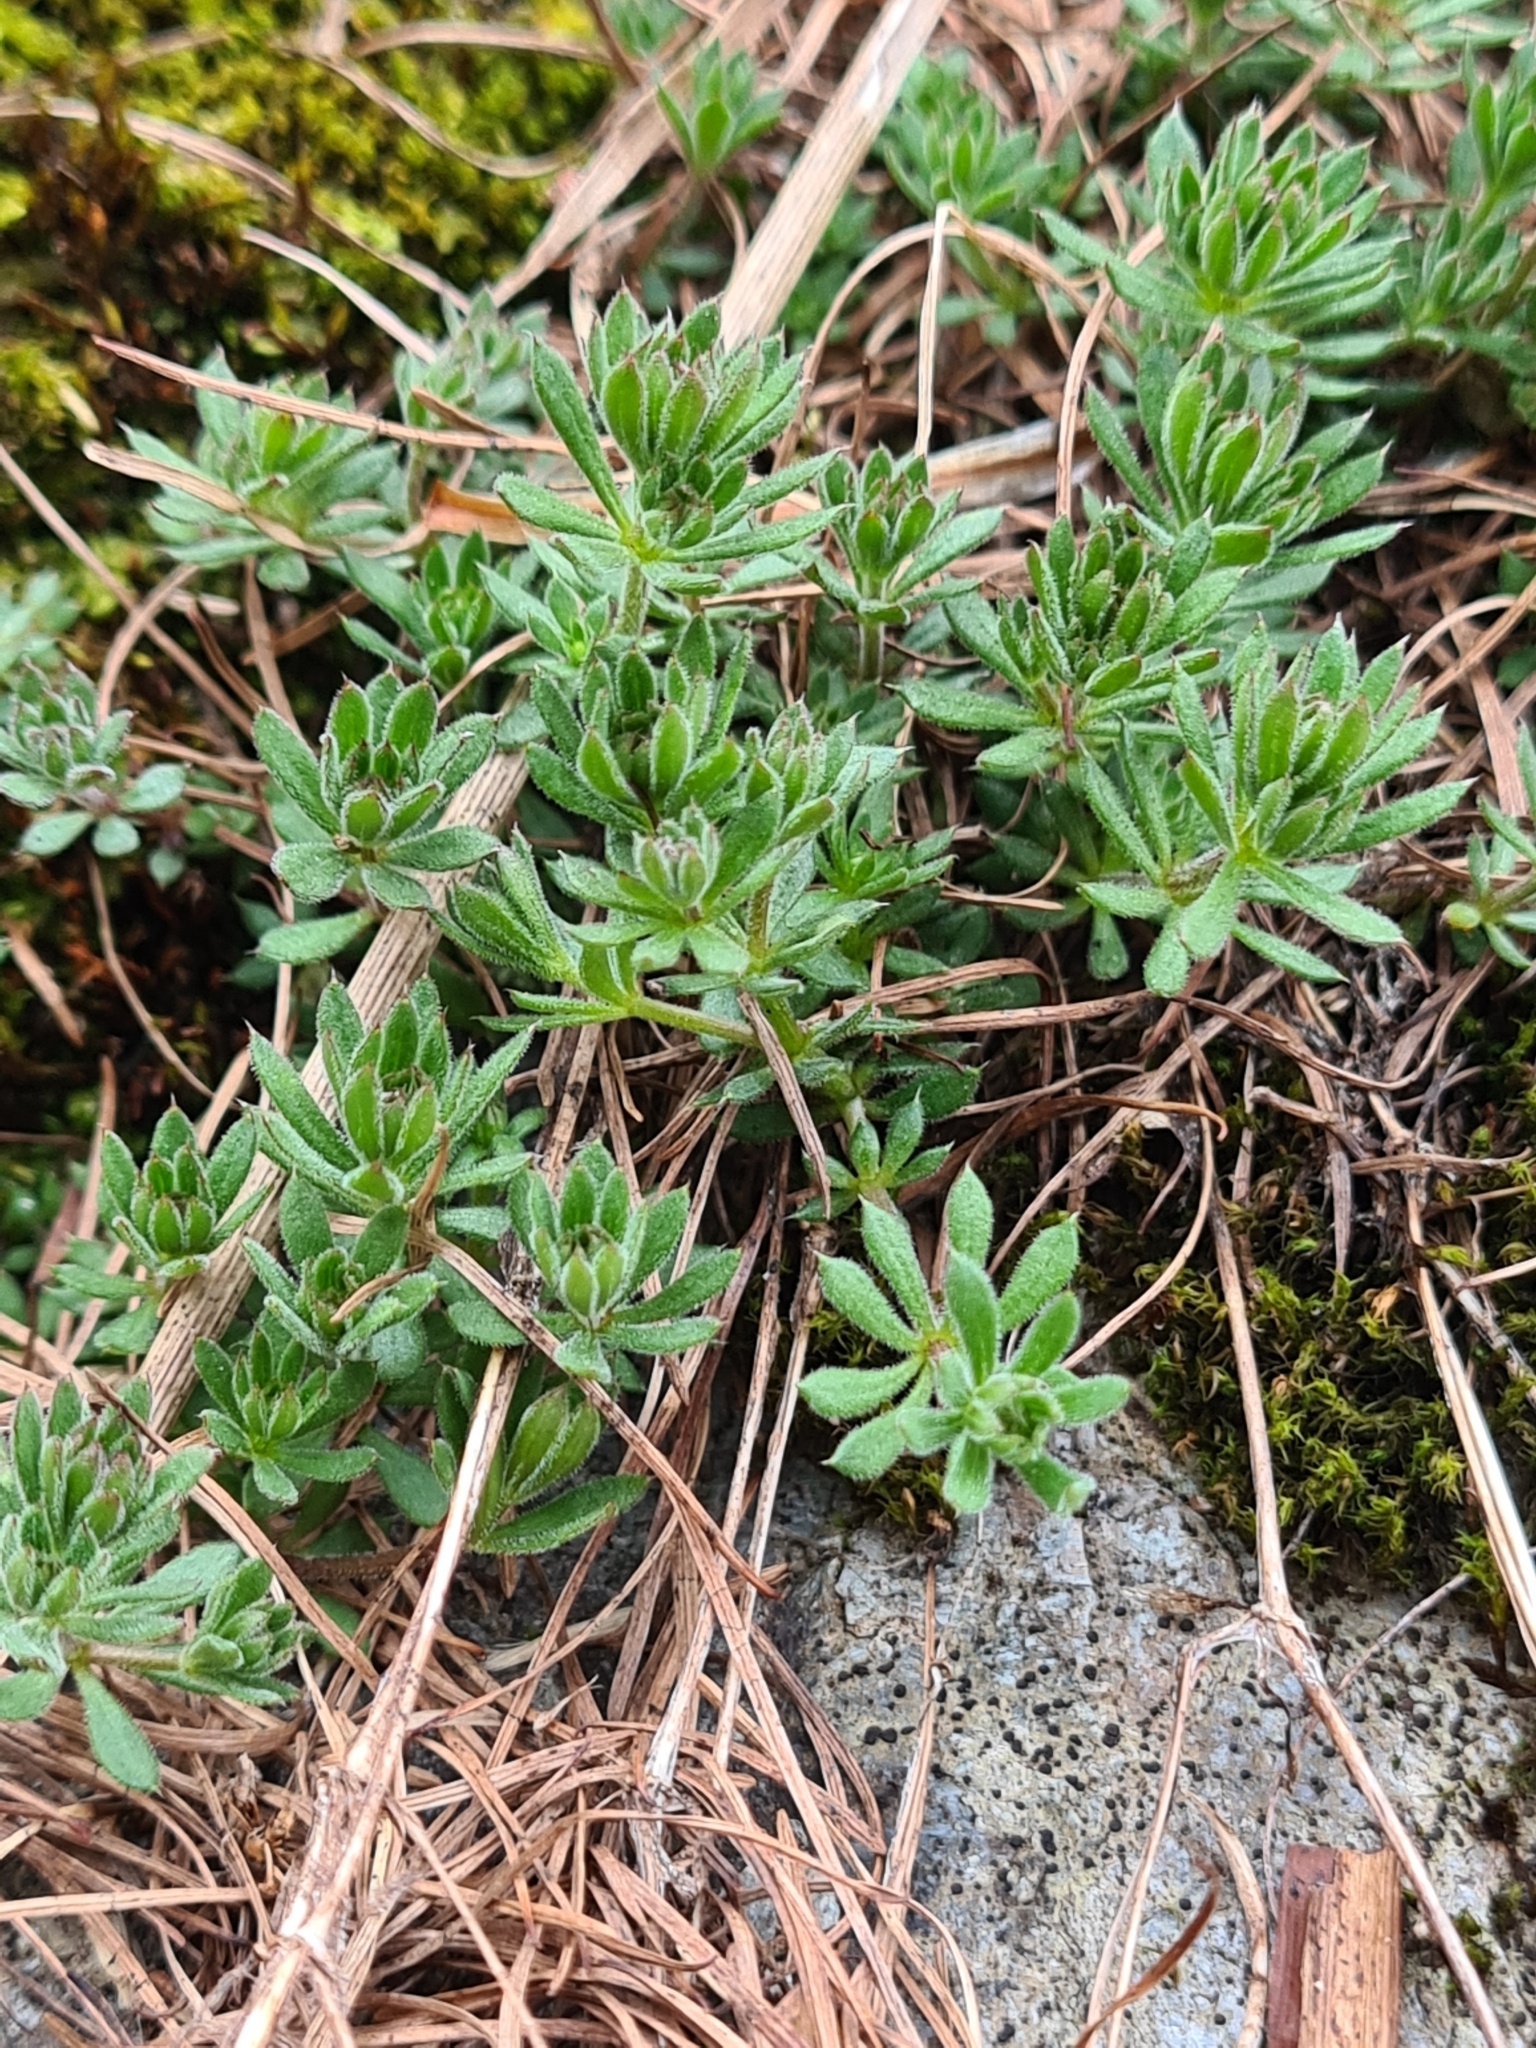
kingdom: Plantae
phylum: Tracheophyta
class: Magnoliopsida
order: Gentianales
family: Rubiaceae
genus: Galium
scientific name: Galium aparine
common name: Cleavers
